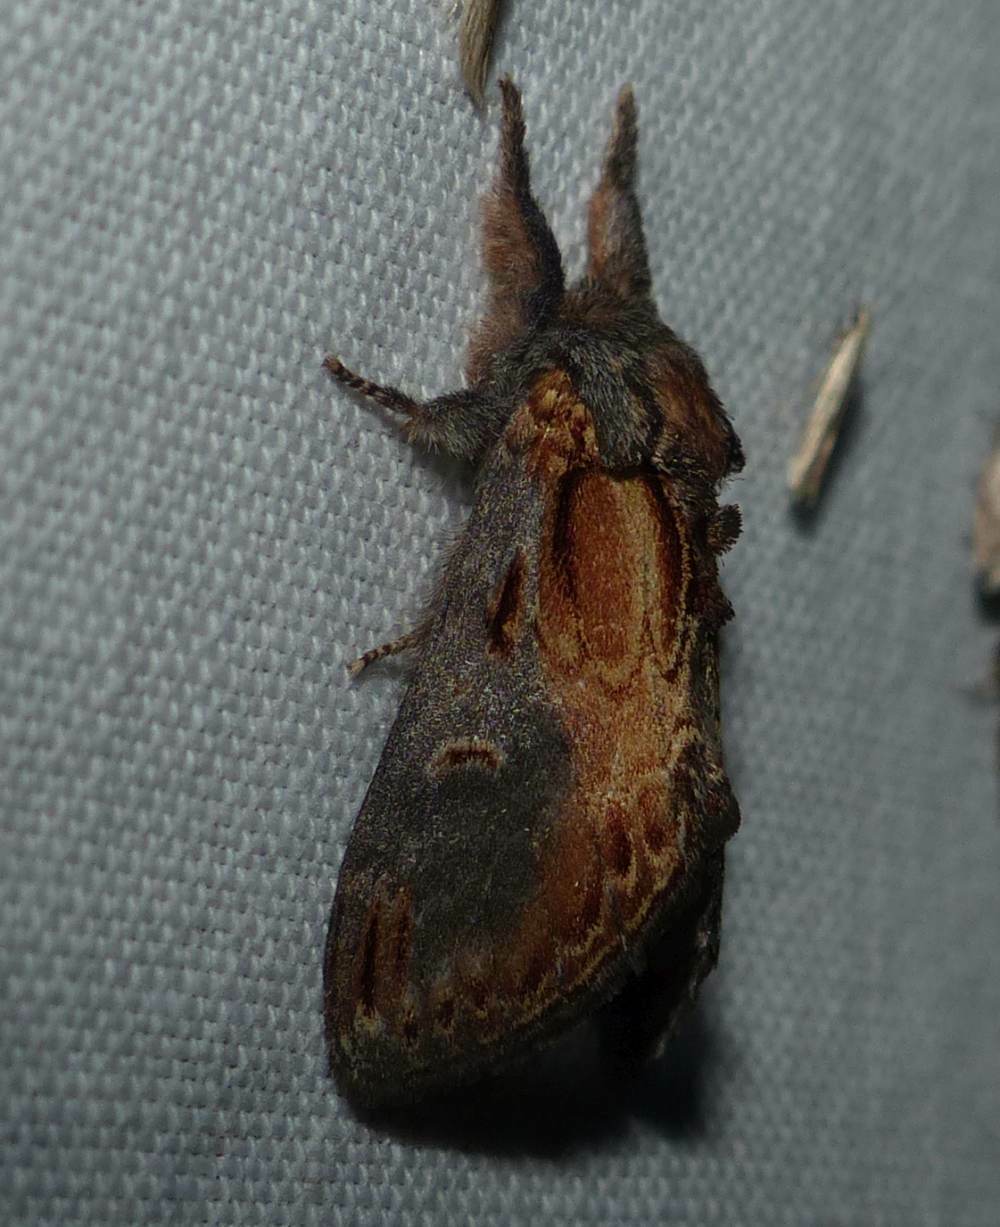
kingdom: Animalia
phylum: Arthropoda
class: Insecta
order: Lepidoptera
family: Notodontidae
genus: Notodonta
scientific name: Notodonta scitipennis
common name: Finned-willow prominent moth
